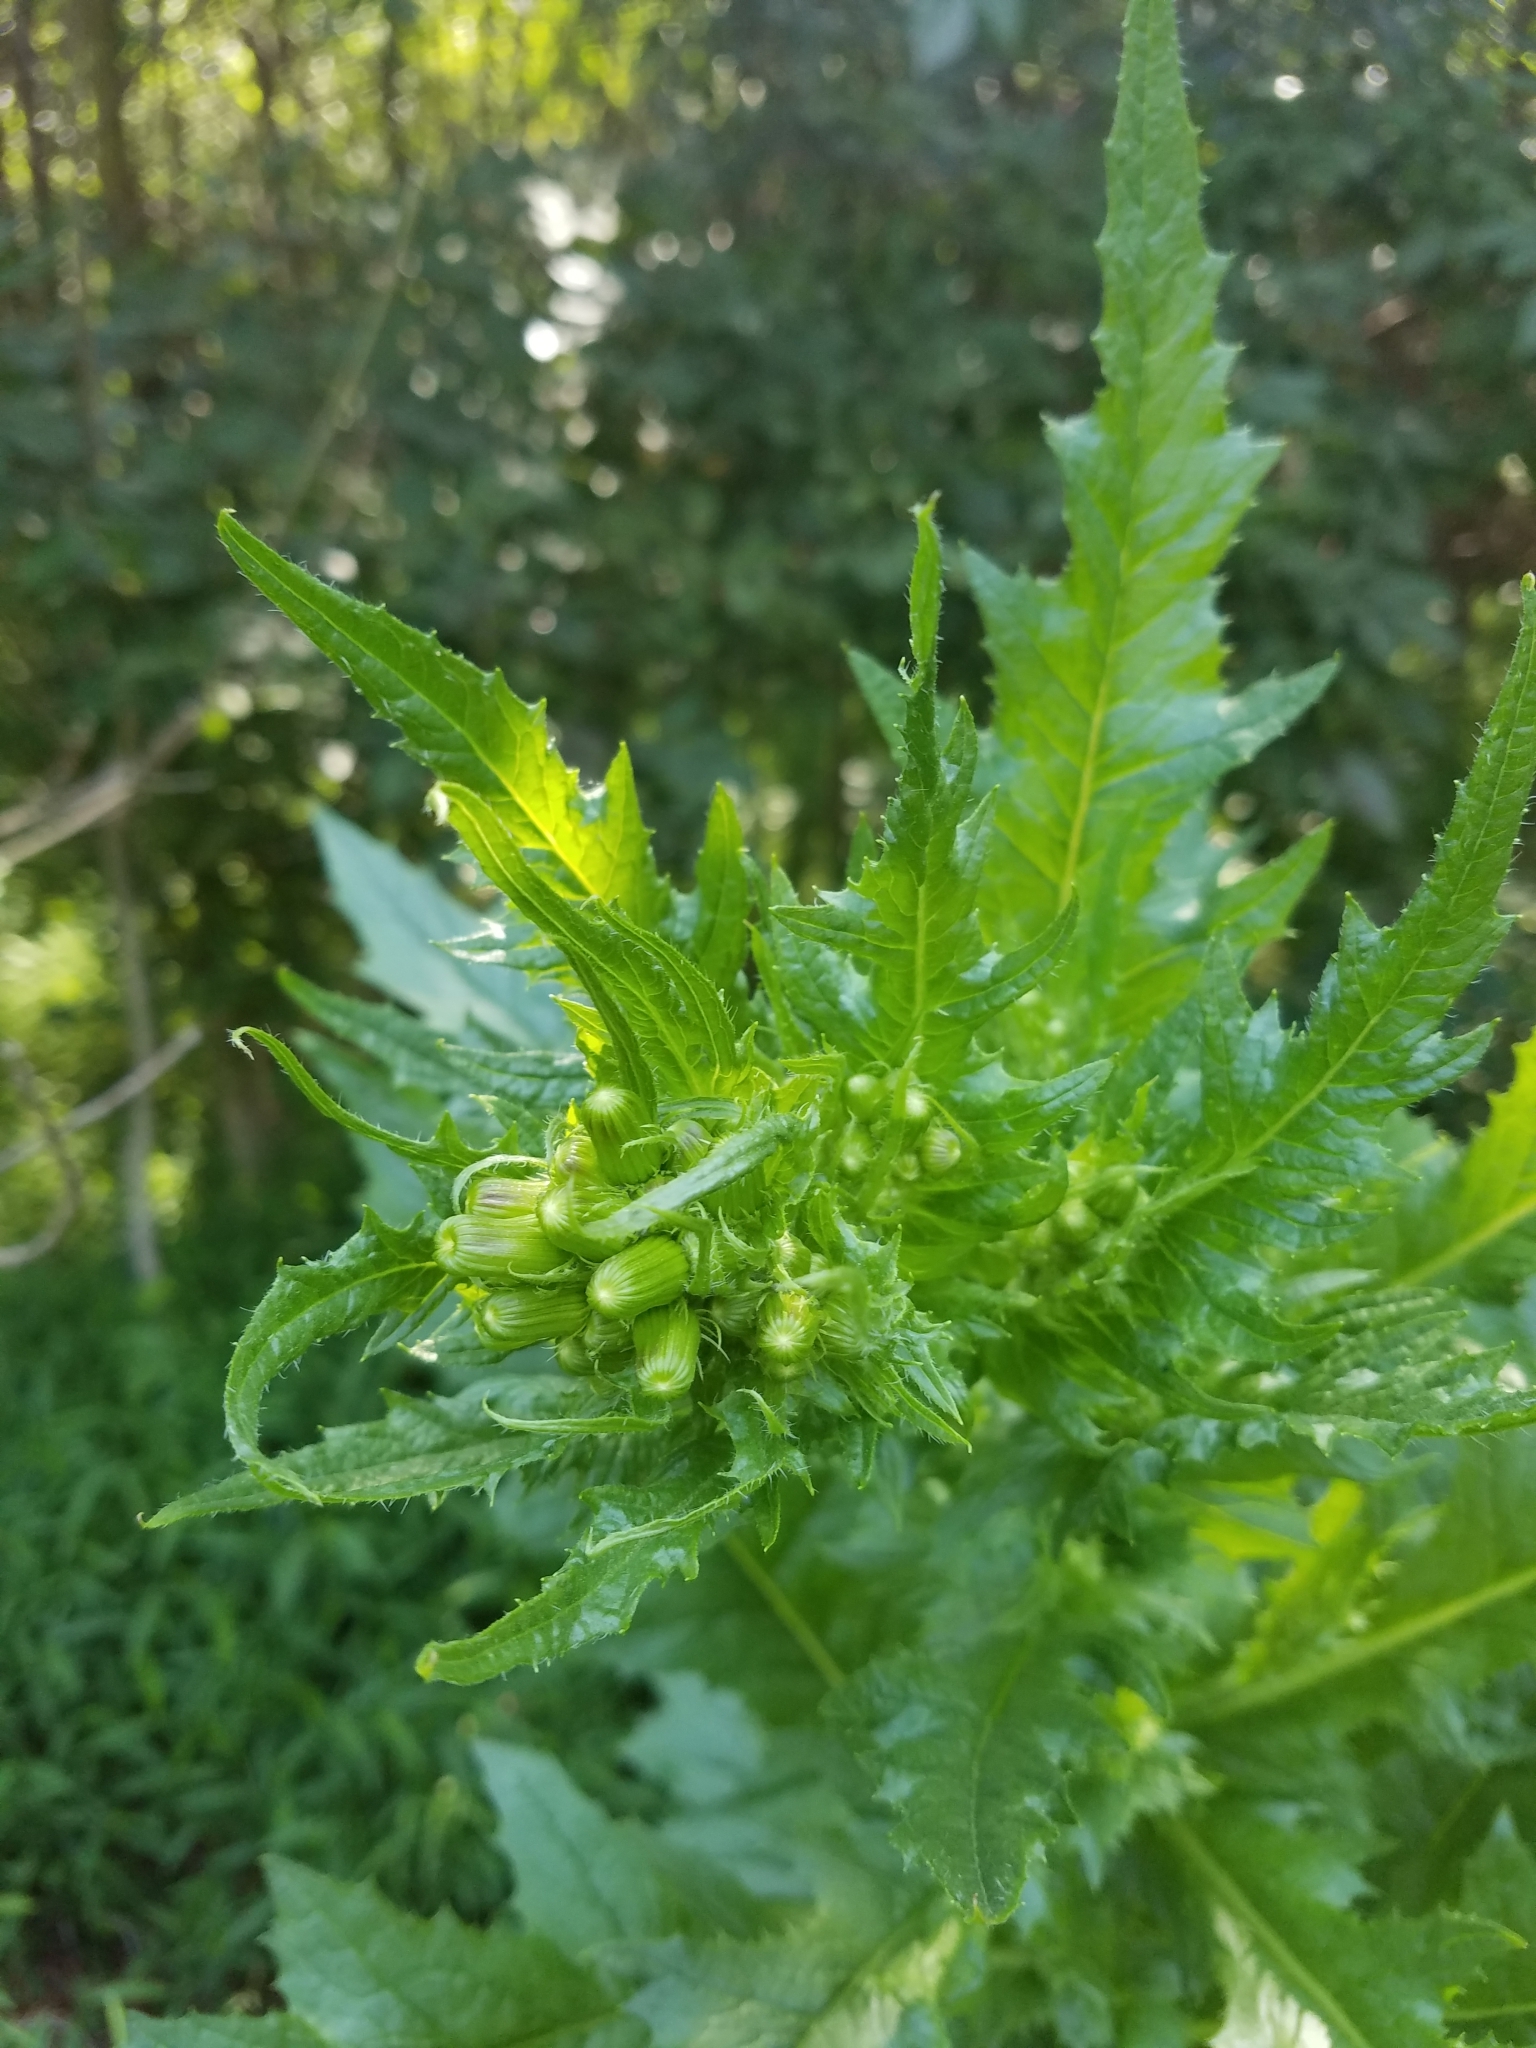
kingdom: Plantae
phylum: Tracheophyta
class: Magnoliopsida
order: Asterales
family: Asteraceae
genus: Erechtites
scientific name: Erechtites hieraciifolius
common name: American burnweed
